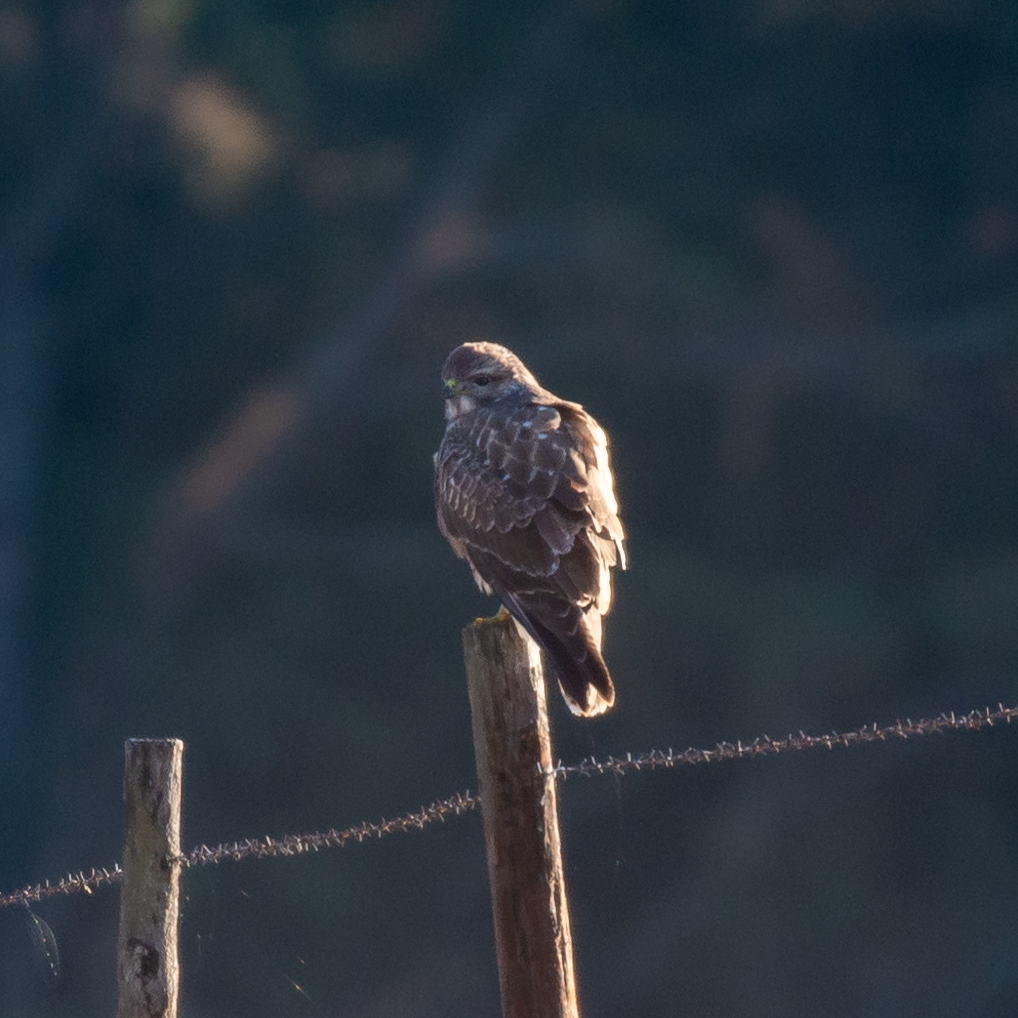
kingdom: Animalia
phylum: Chordata
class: Aves
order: Accipitriformes
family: Accipitridae
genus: Buteo
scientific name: Buteo buteo
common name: Common buzzard
